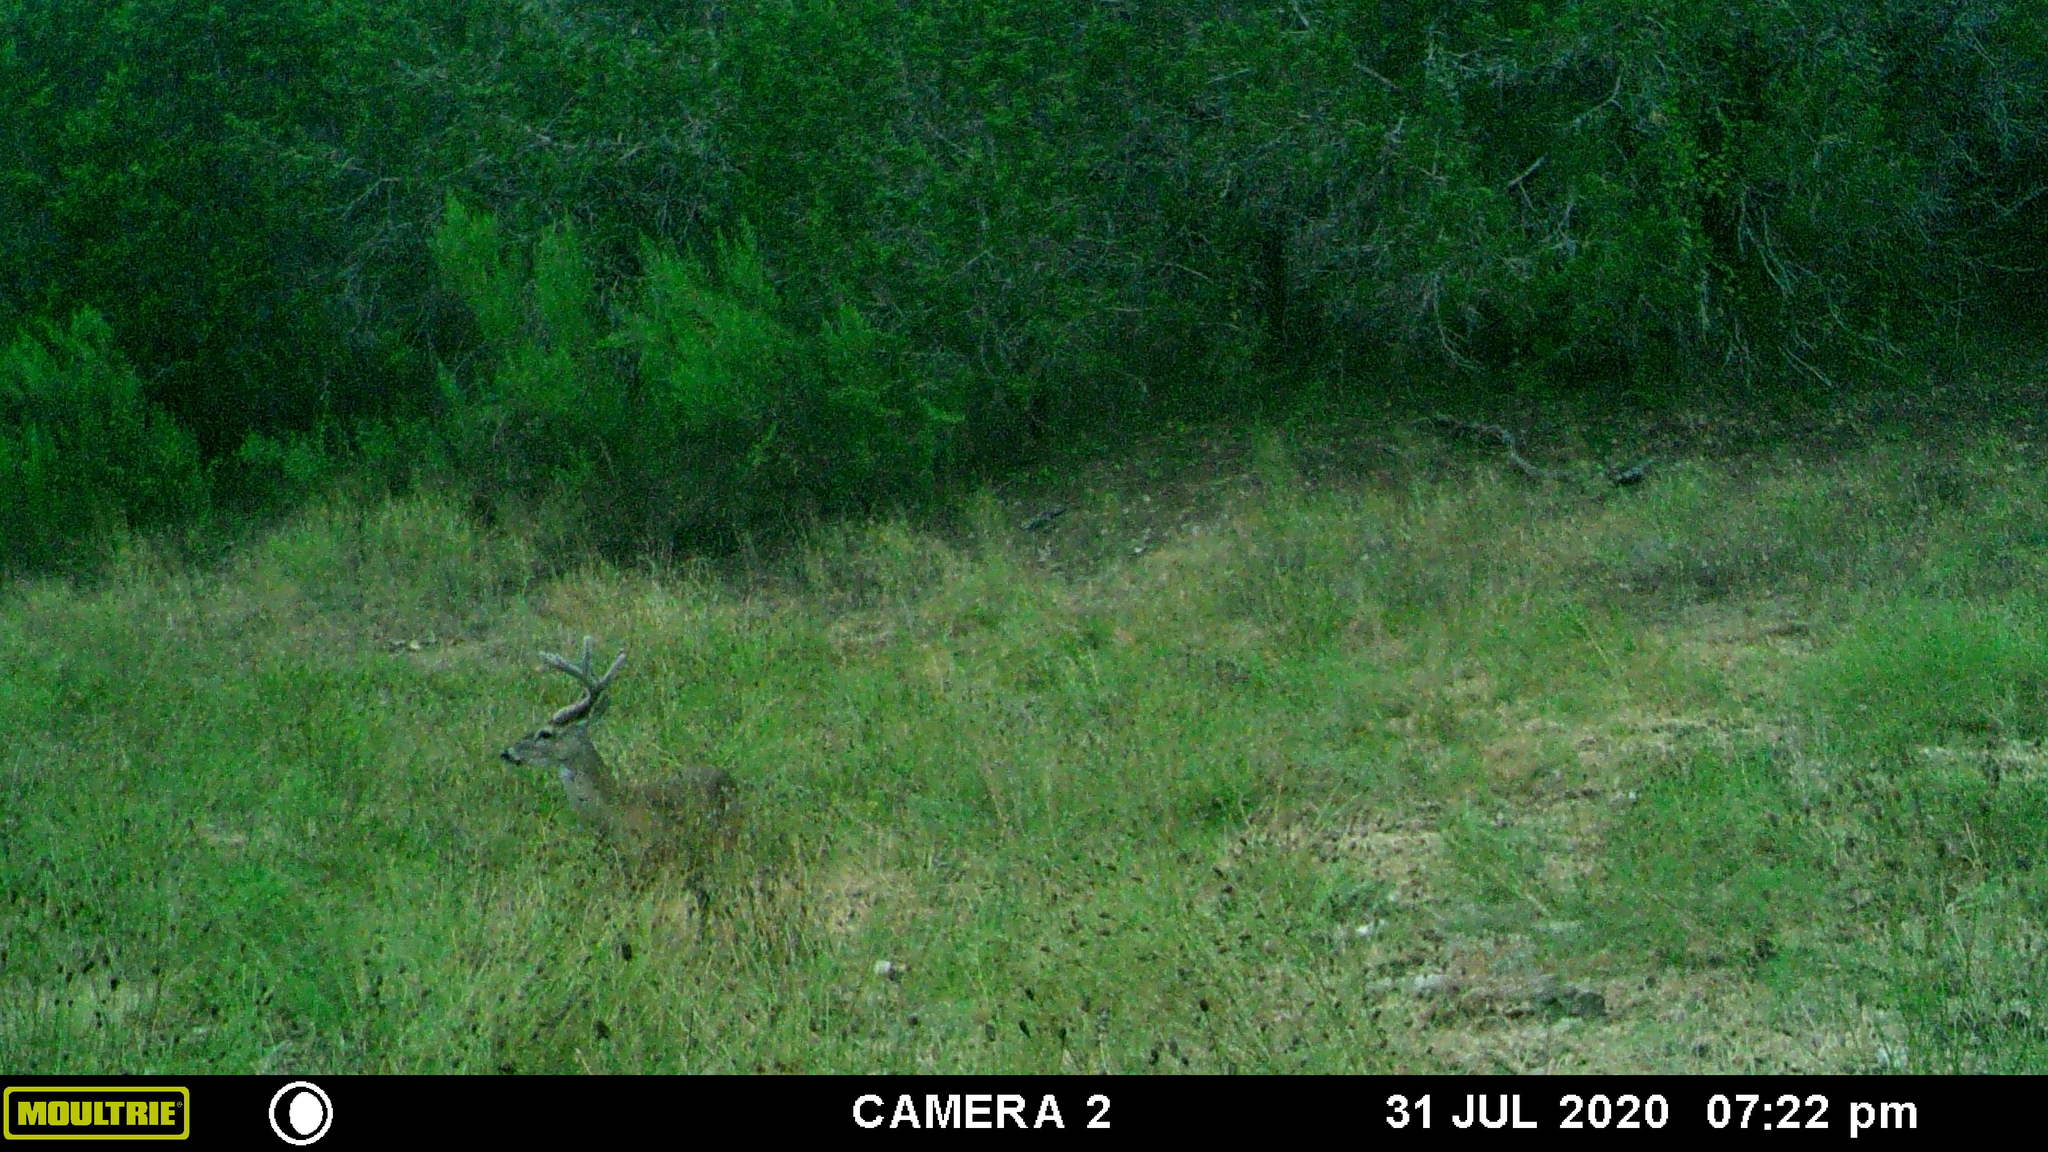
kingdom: Animalia
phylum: Chordata
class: Mammalia
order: Artiodactyla
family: Cervidae
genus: Odocoileus
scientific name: Odocoileus virginianus
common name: White-tailed deer
